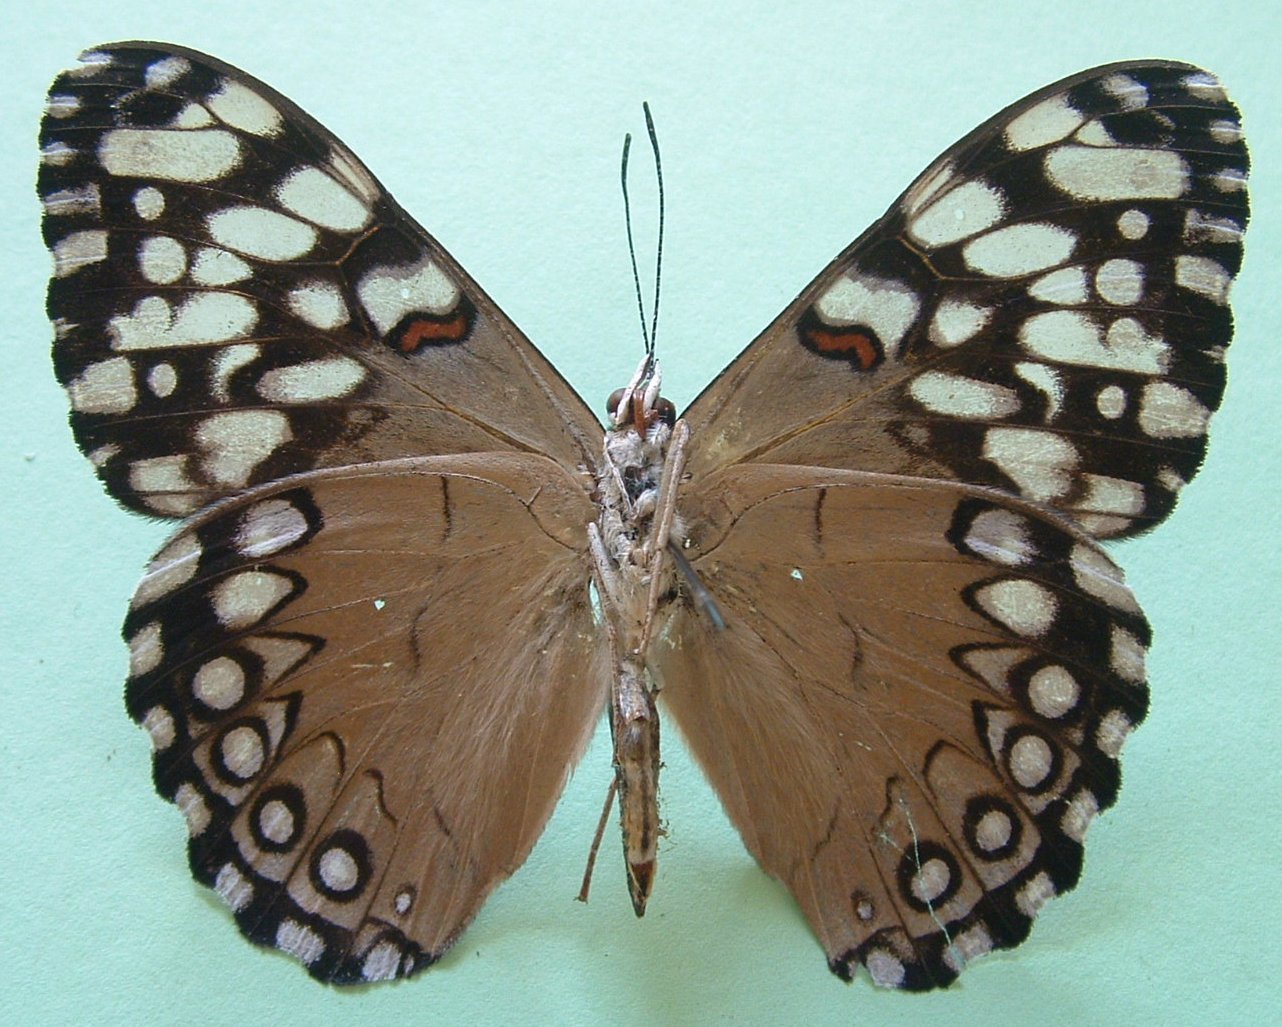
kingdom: Animalia
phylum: Arthropoda
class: Insecta
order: Lepidoptera
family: Nymphalidae
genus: Hamadryas
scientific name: Hamadryas guatemalena
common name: Guatemalan cracker
